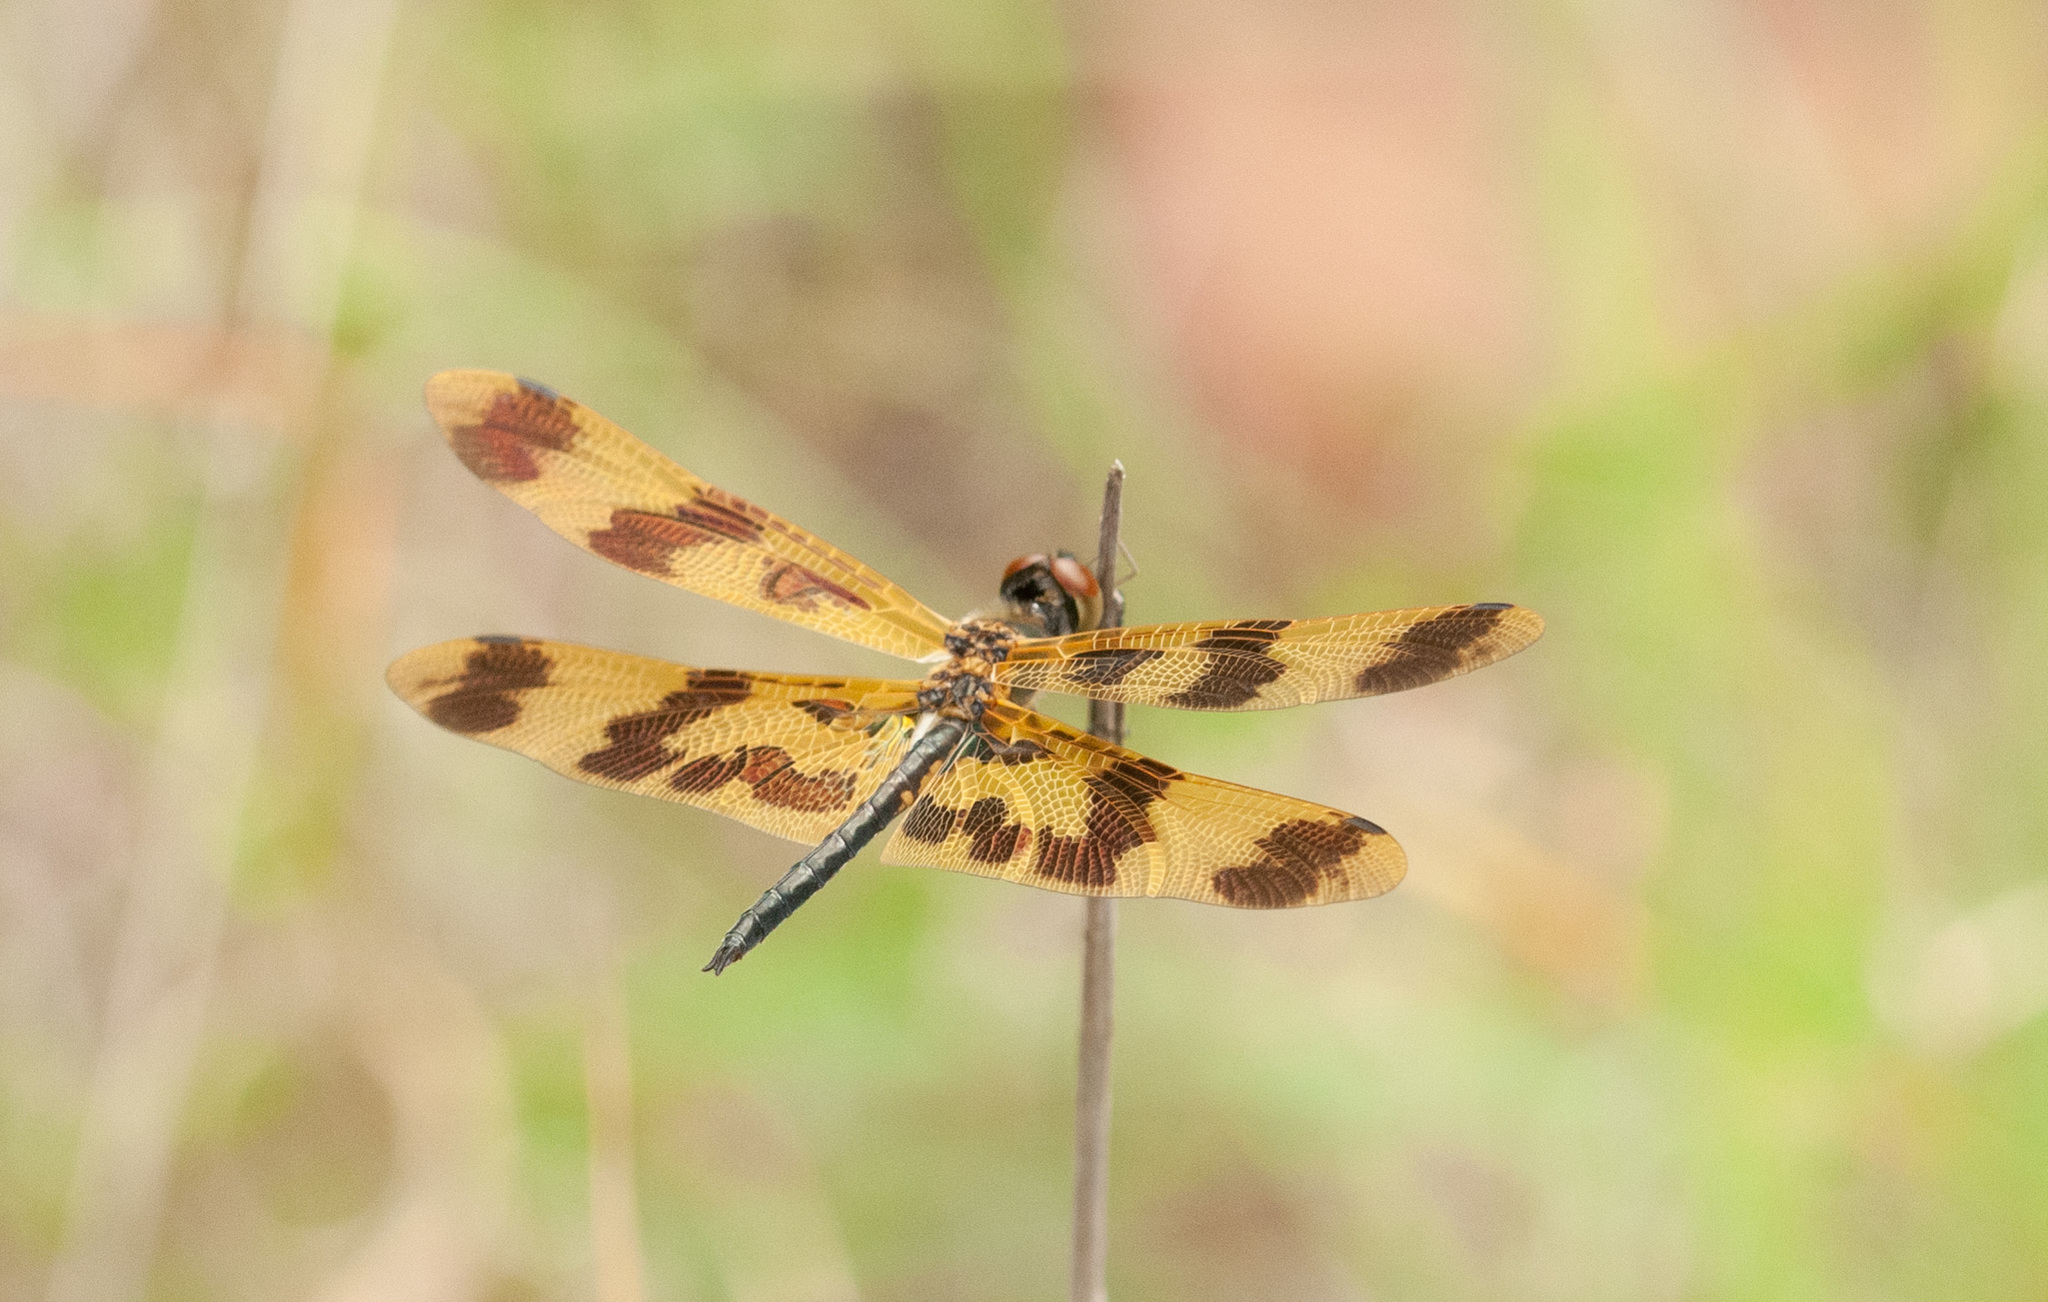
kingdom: Animalia
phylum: Arthropoda
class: Insecta
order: Odonata
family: Libellulidae
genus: Rhyothemis
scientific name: Rhyothemis graphiptera
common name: Graphic flutterer
